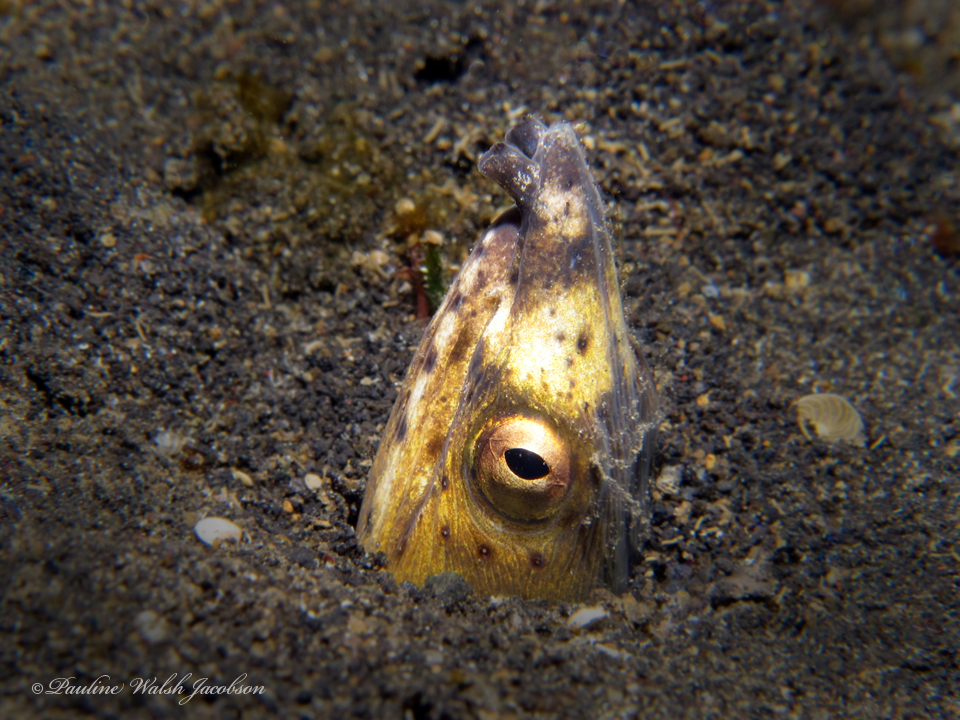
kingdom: Animalia
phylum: Chordata
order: Anguilliformes
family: Ophichthidae
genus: Ophichthus
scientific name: Ophichthus altipennis
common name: Highfin snake eel
